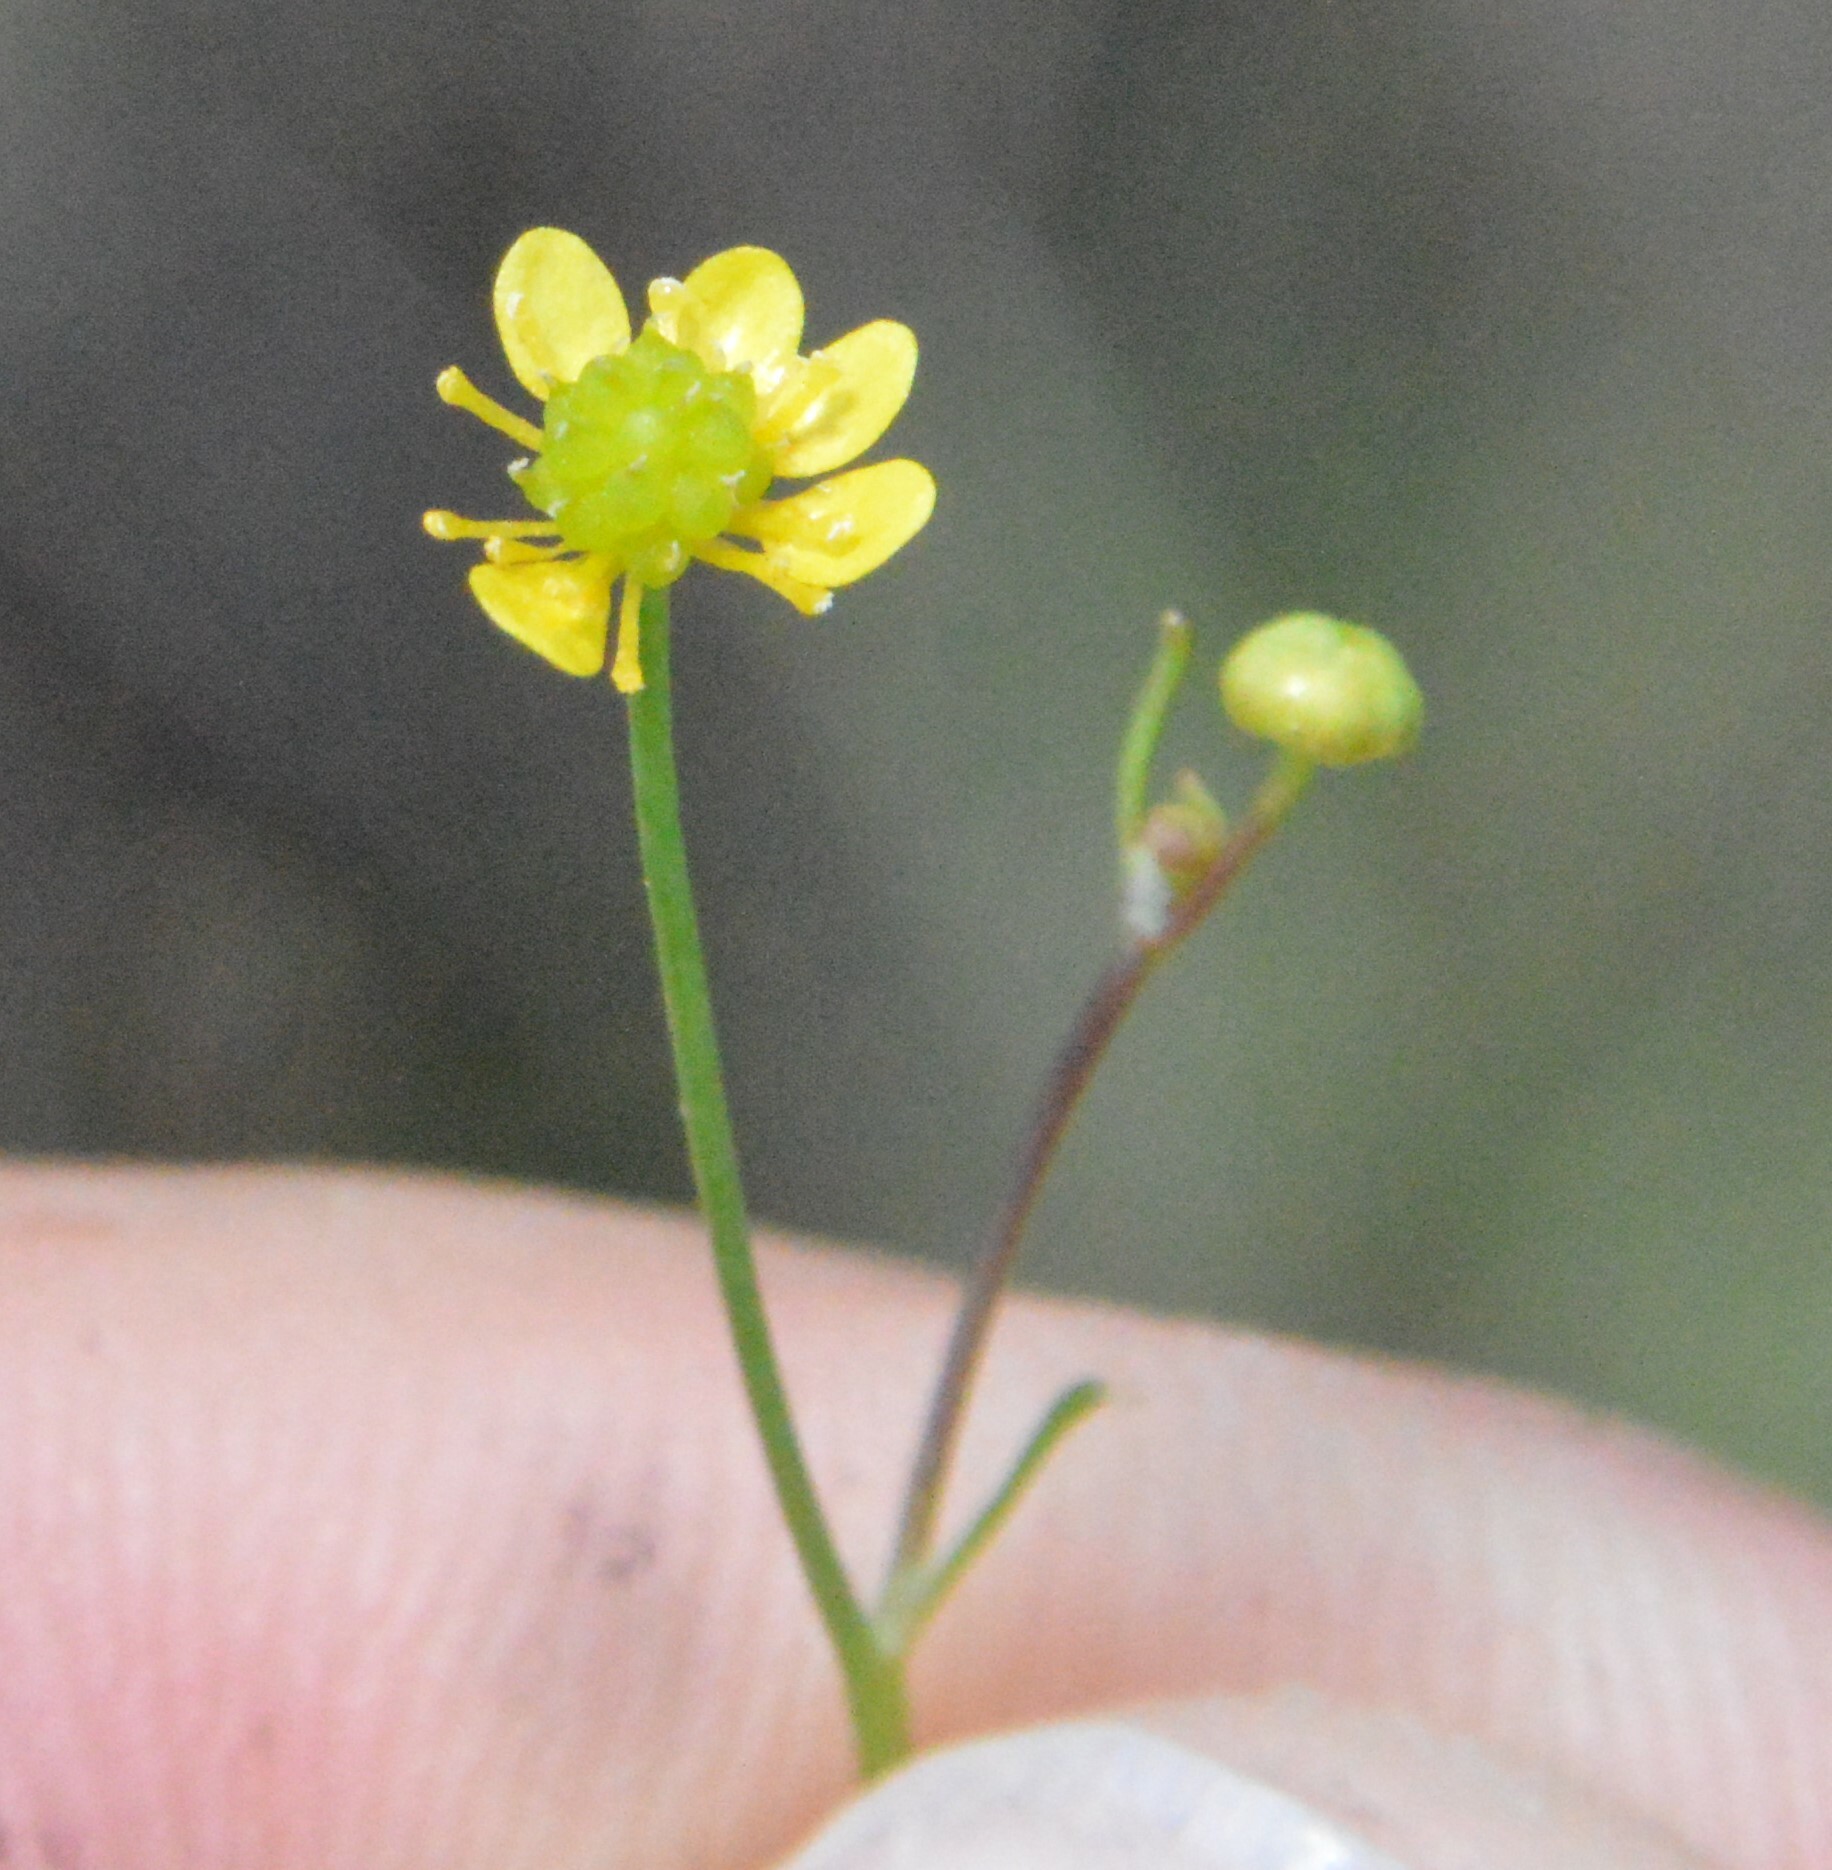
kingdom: Plantae
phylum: Tracheophyta
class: Magnoliopsida
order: Ranunculales
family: Ranunculaceae
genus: Ranunculus
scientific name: Ranunculus laxicaulis
